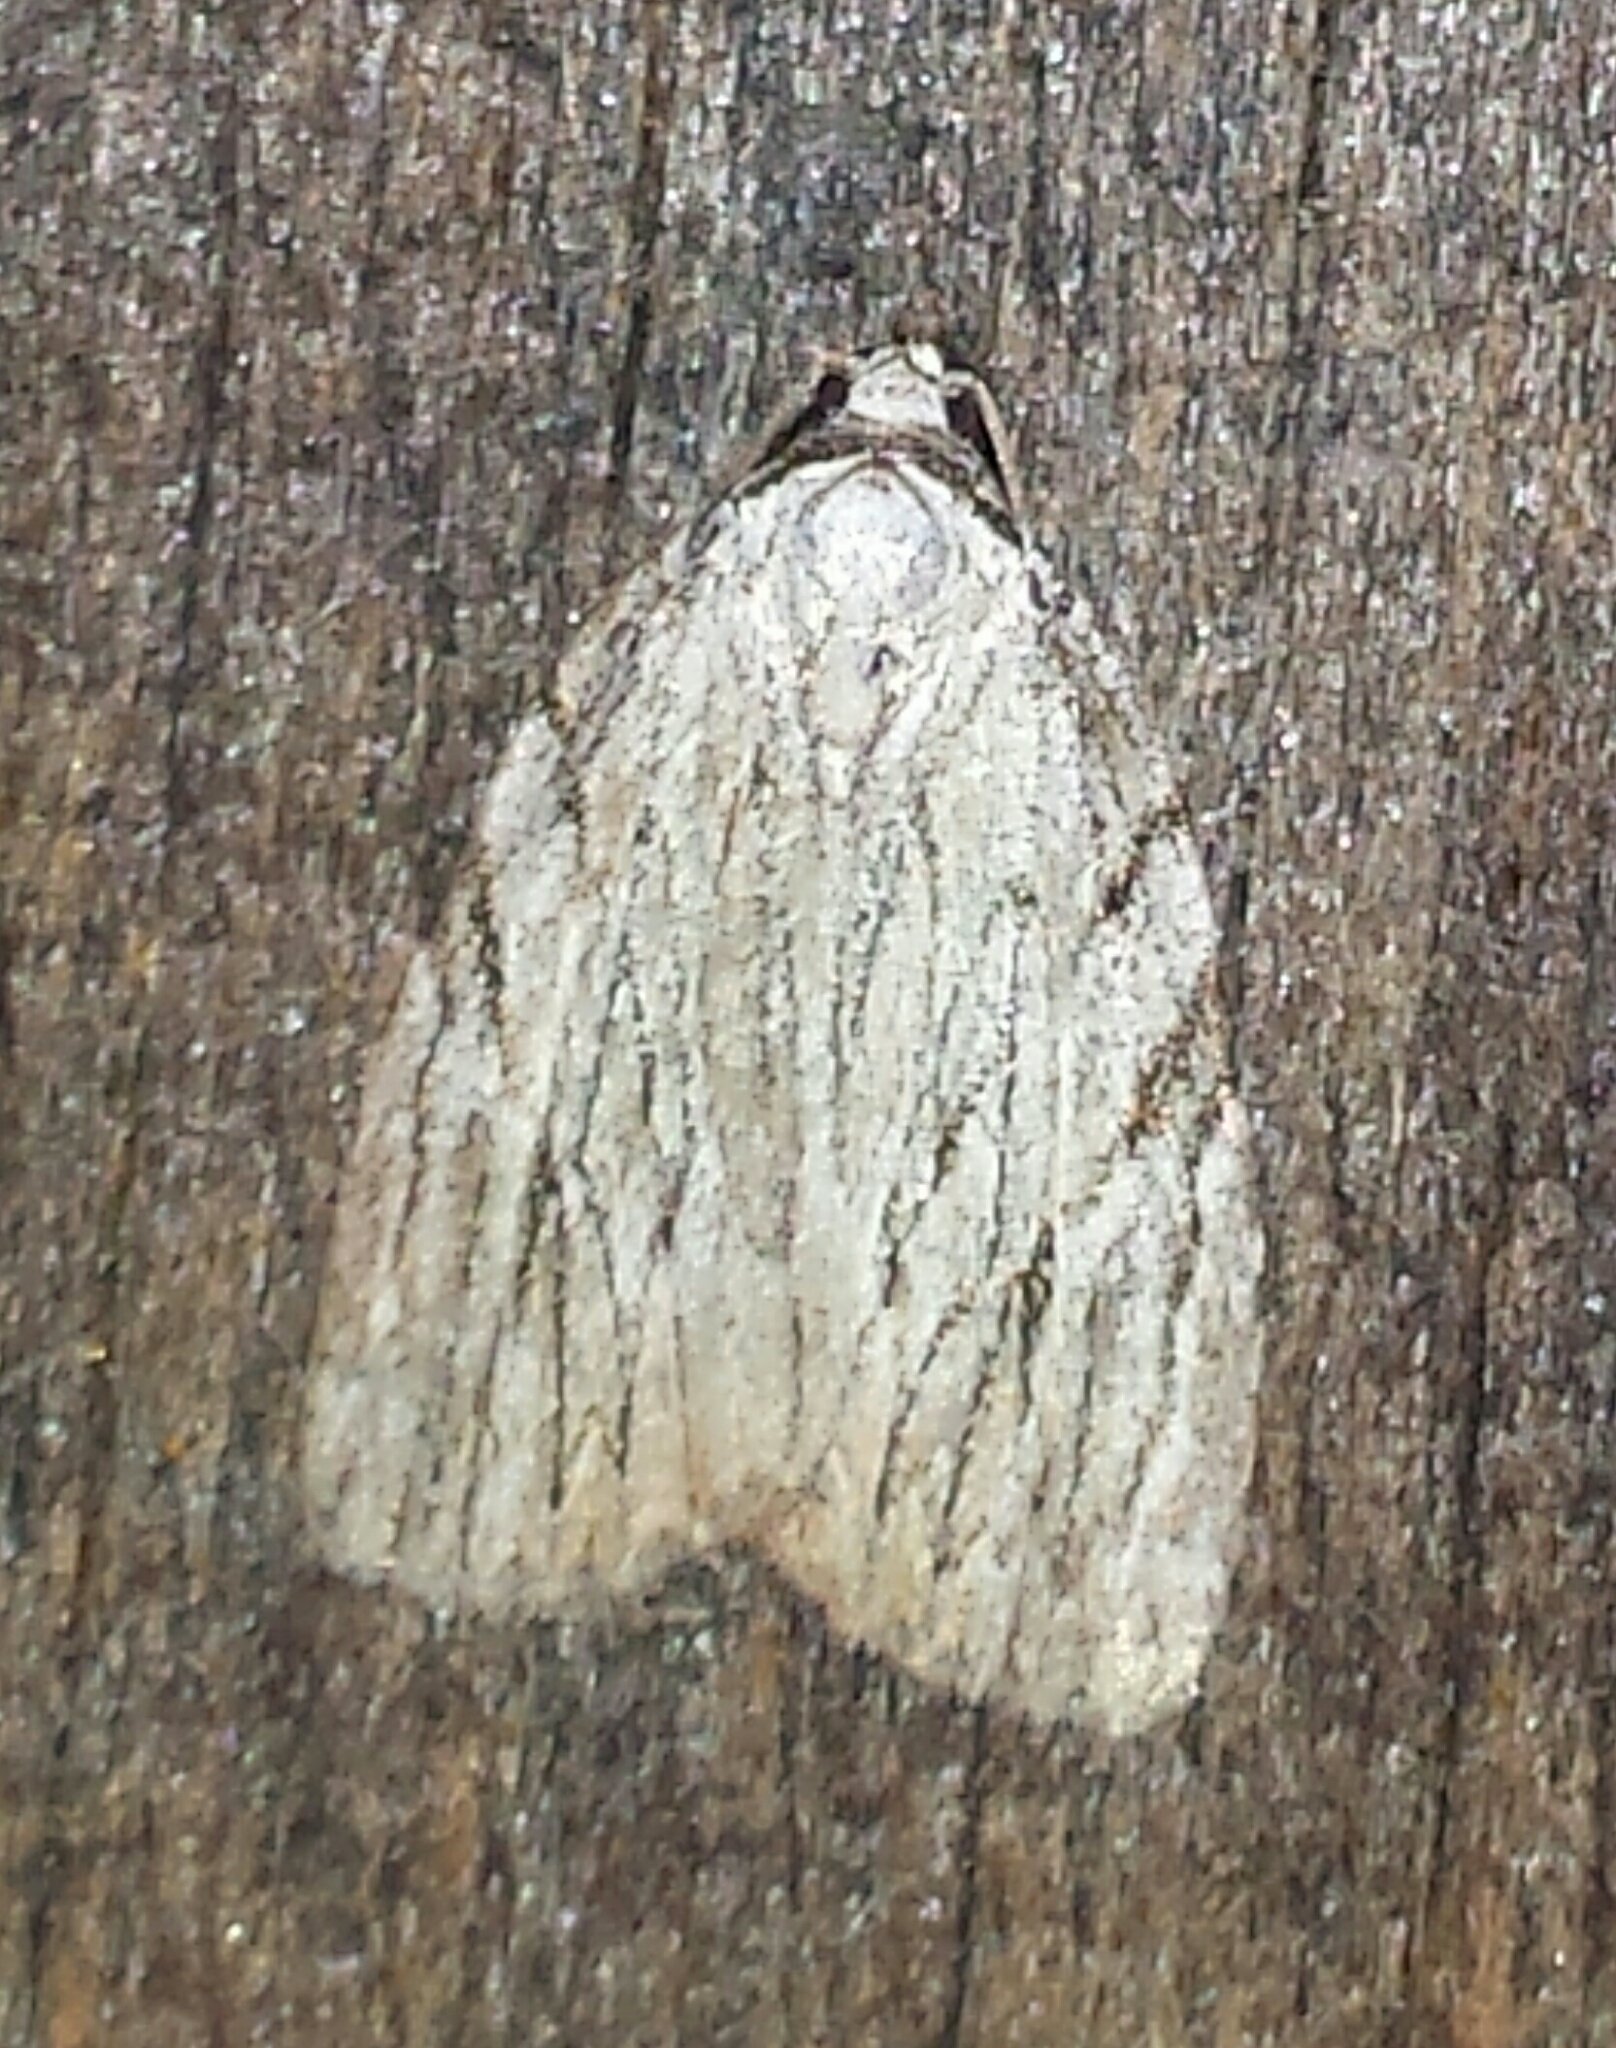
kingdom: Animalia
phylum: Arthropoda
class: Insecta
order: Lepidoptera
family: Noctuidae
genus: Balsa
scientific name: Balsa tristrigella
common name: Three-lined balsa moth
